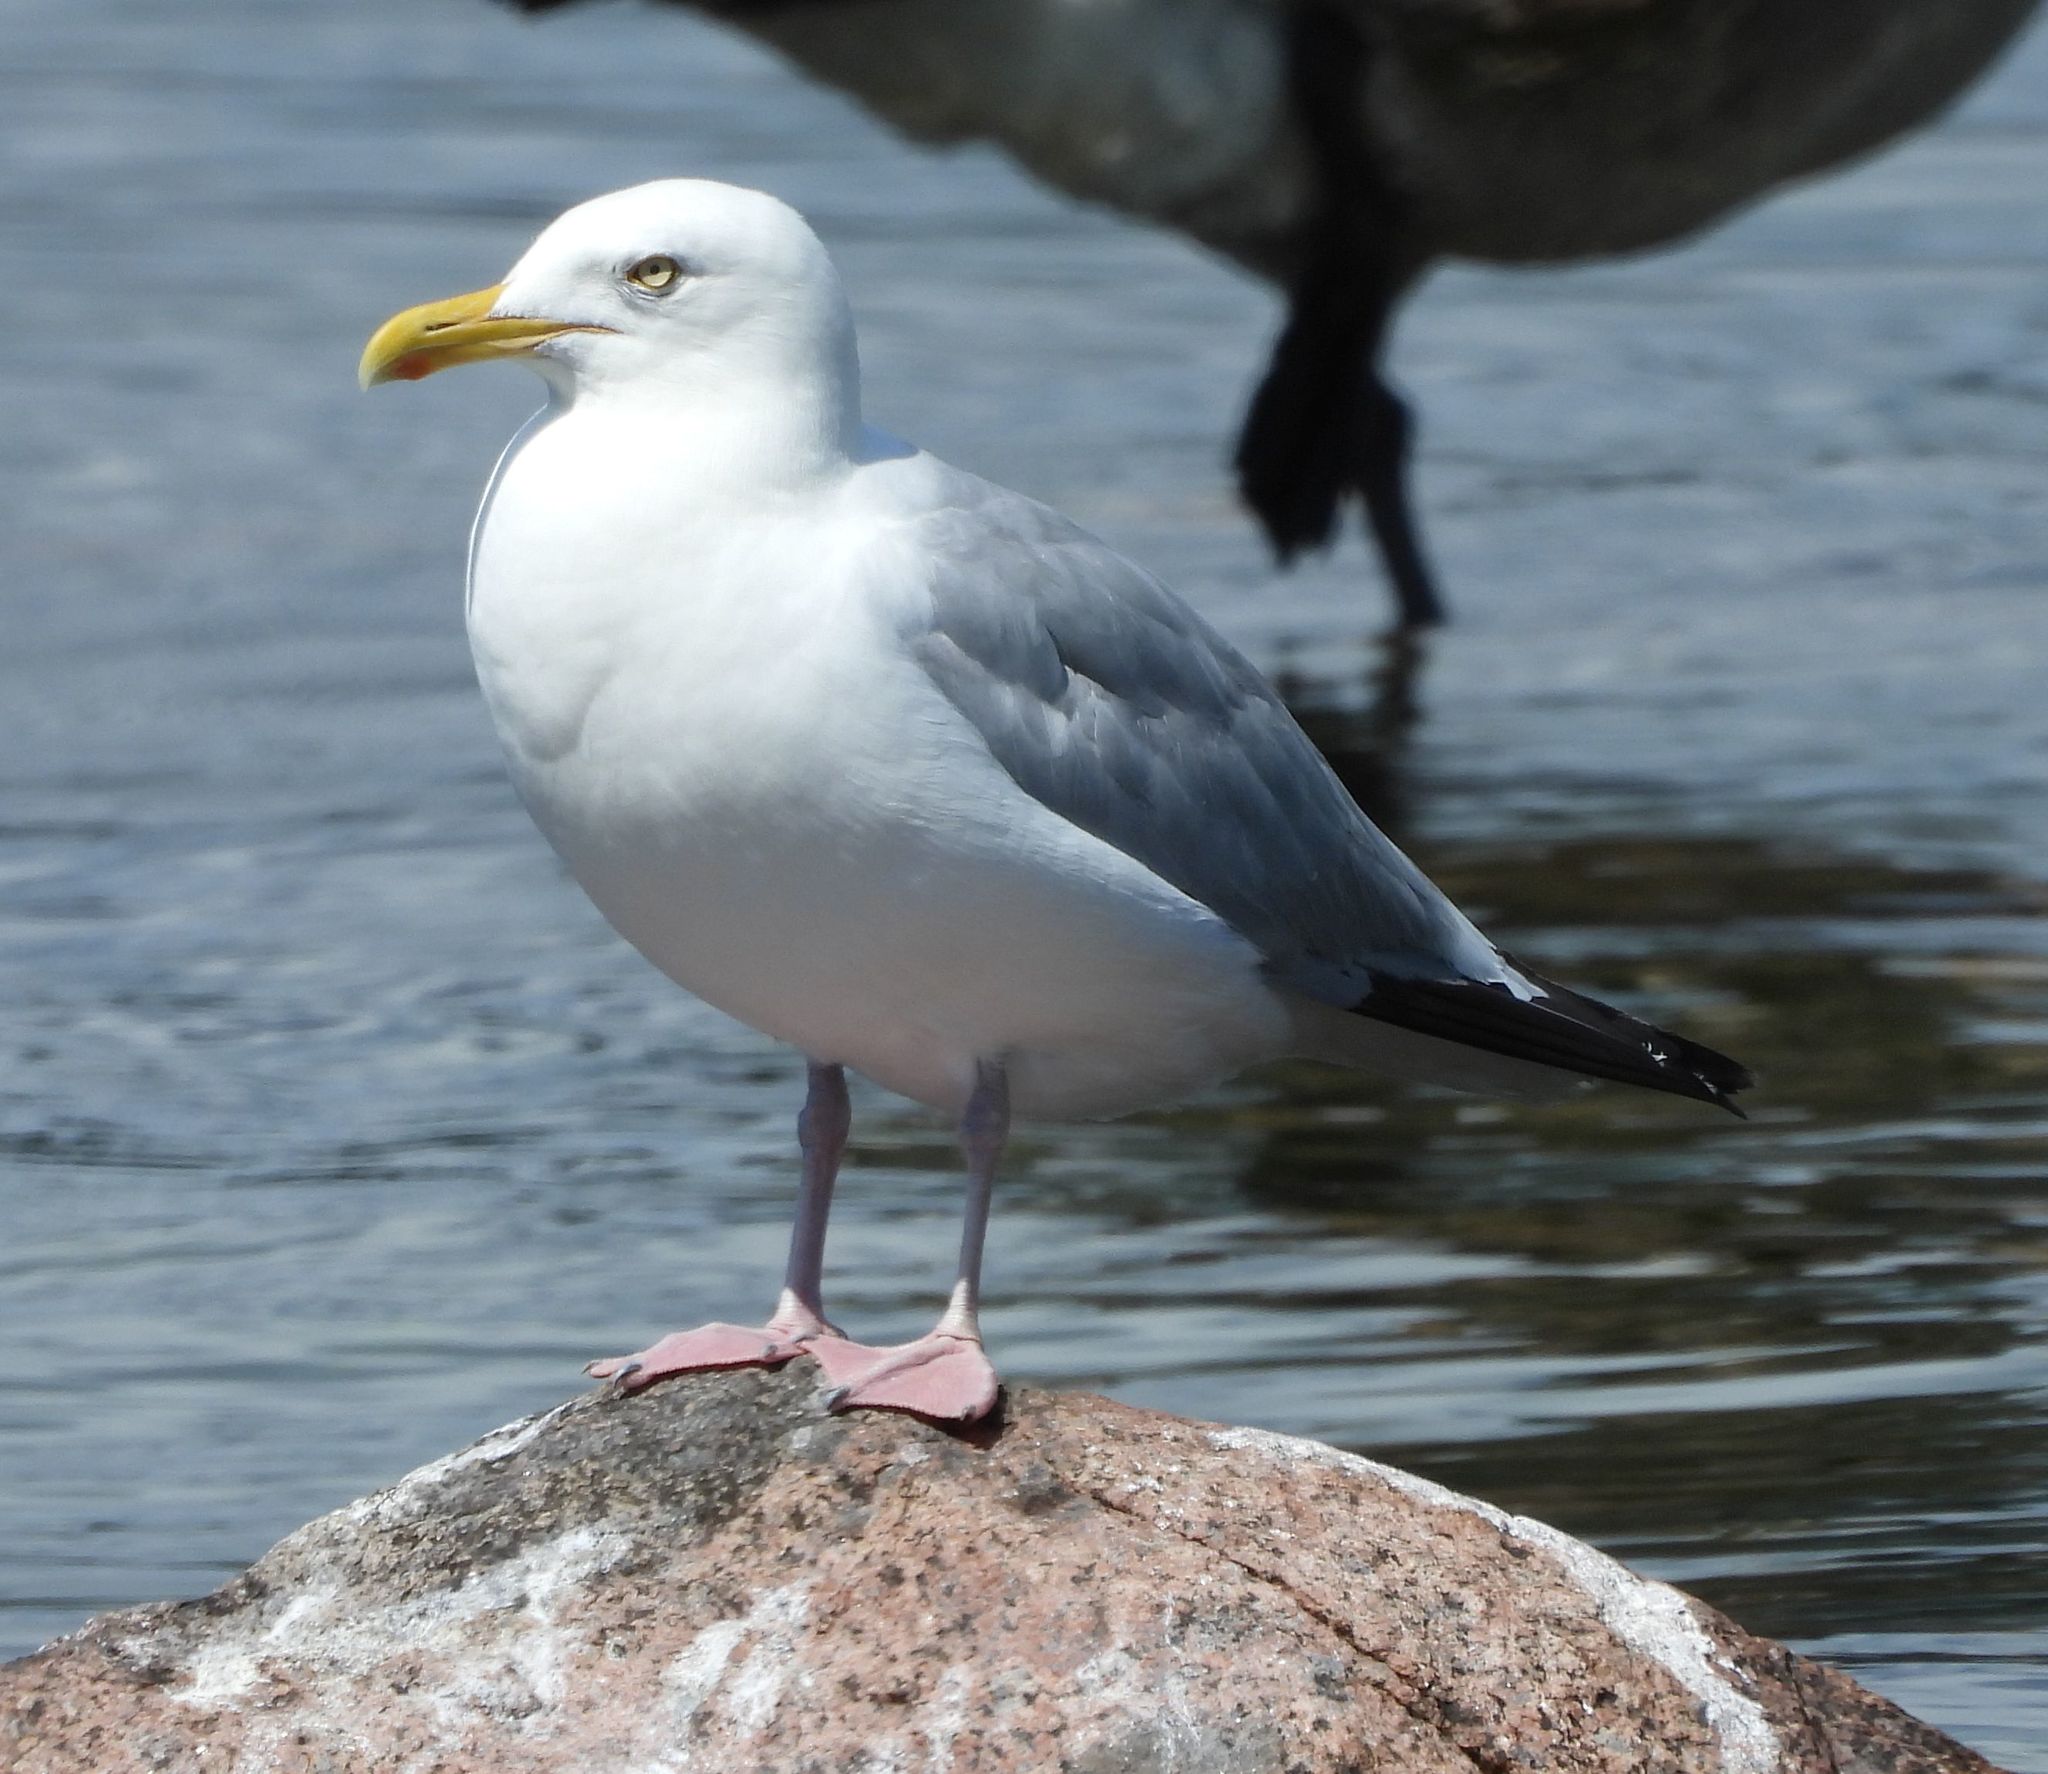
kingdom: Animalia
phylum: Chordata
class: Aves
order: Charadriiformes
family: Laridae
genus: Larus
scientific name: Larus argentatus
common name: Herring gull
